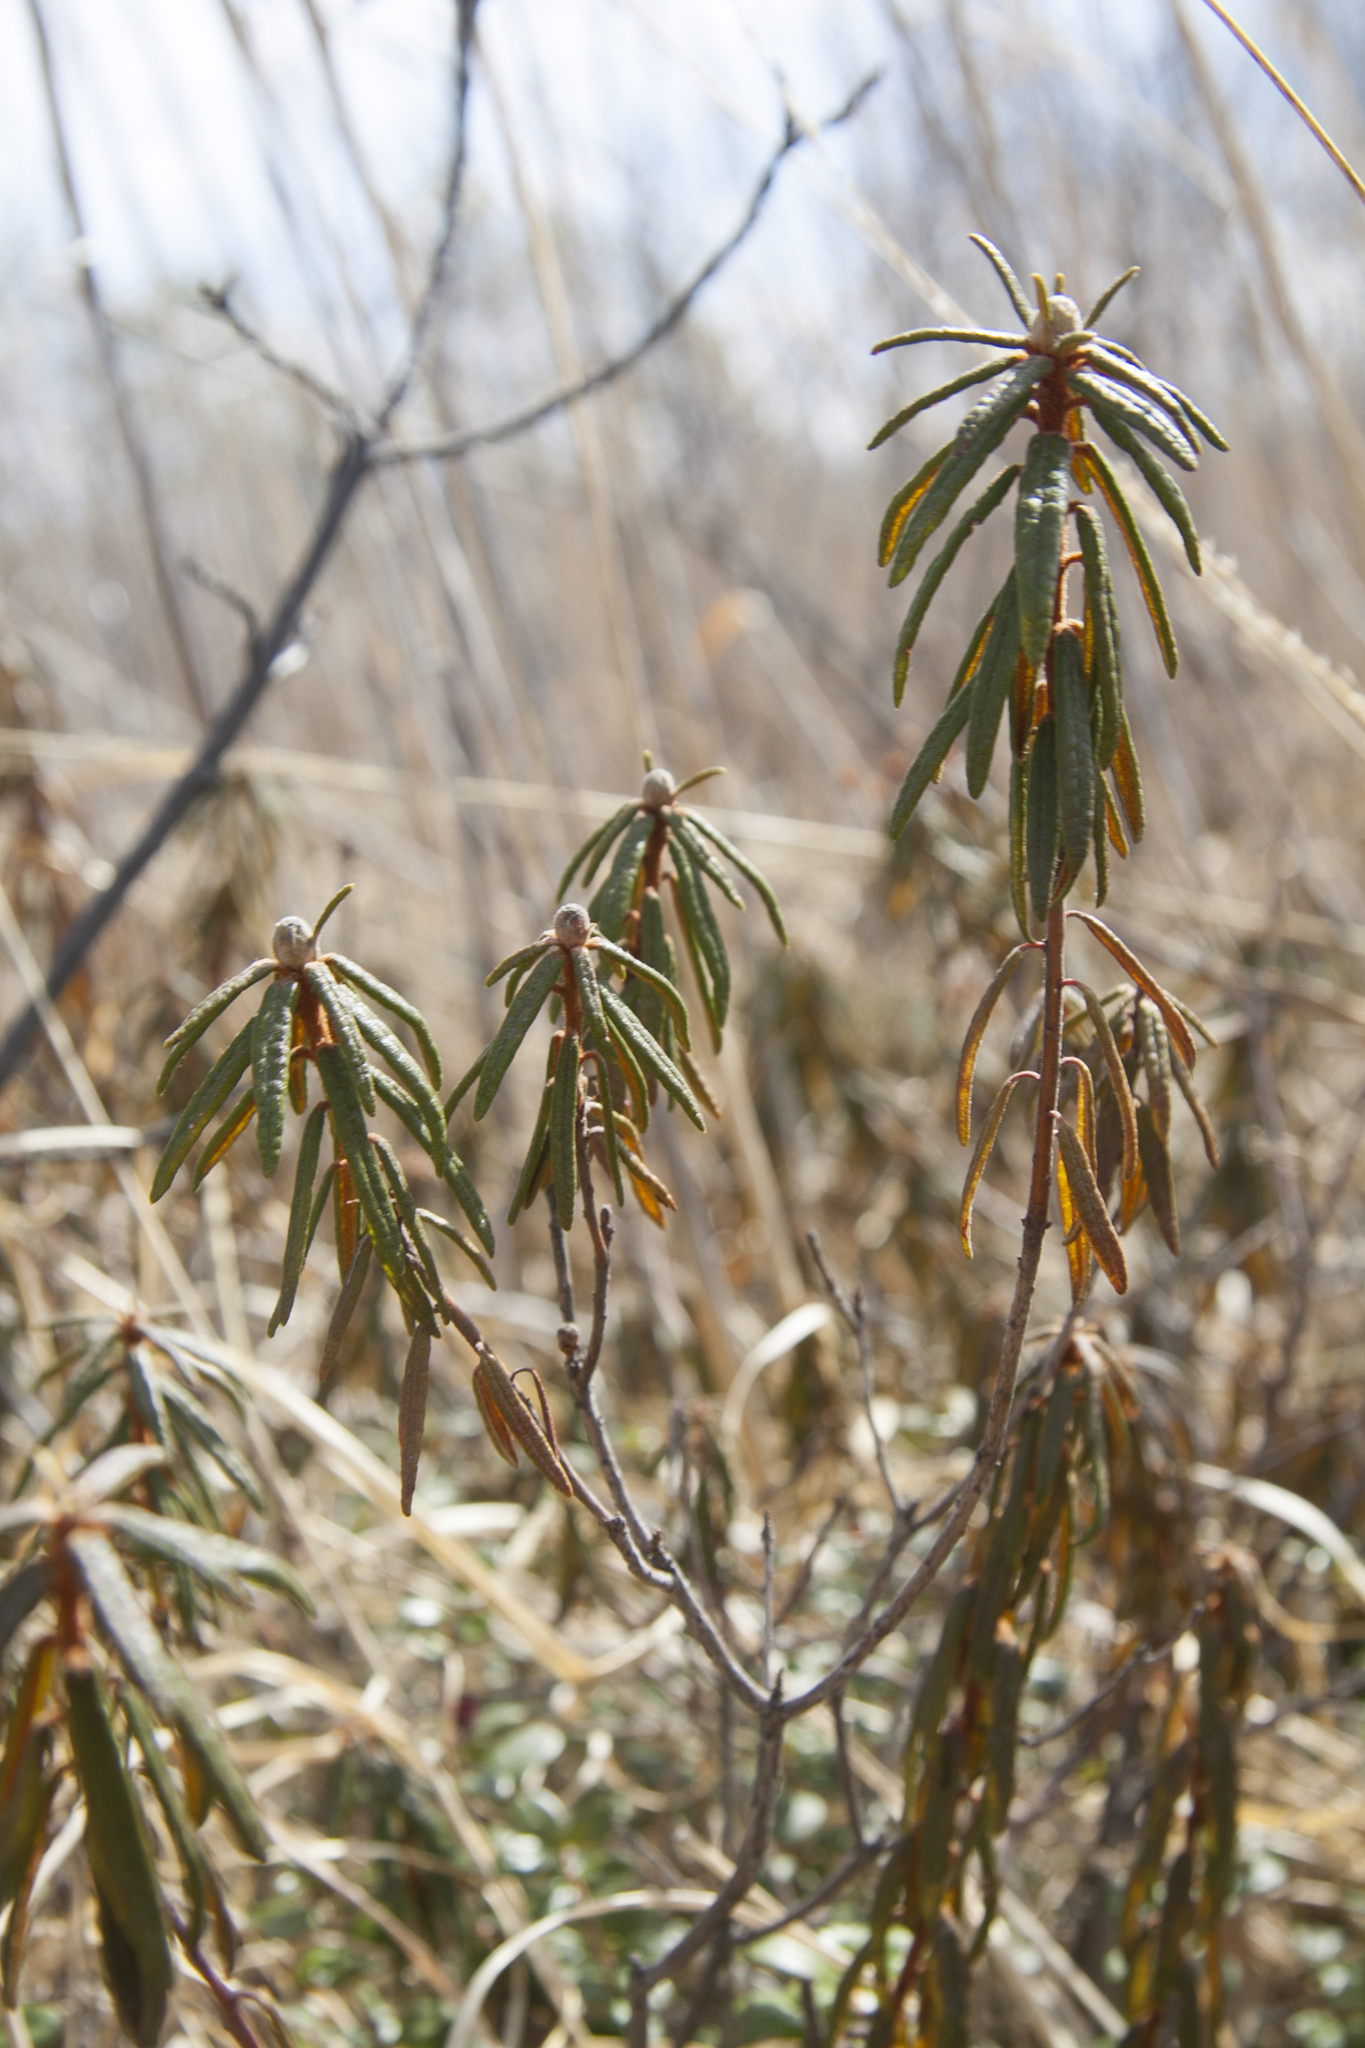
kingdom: Plantae
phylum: Tracheophyta
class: Magnoliopsida
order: Ericales
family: Ericaceae
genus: Rhododendron
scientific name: Rhododendron tomentosum
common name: Marsh labrador tea
